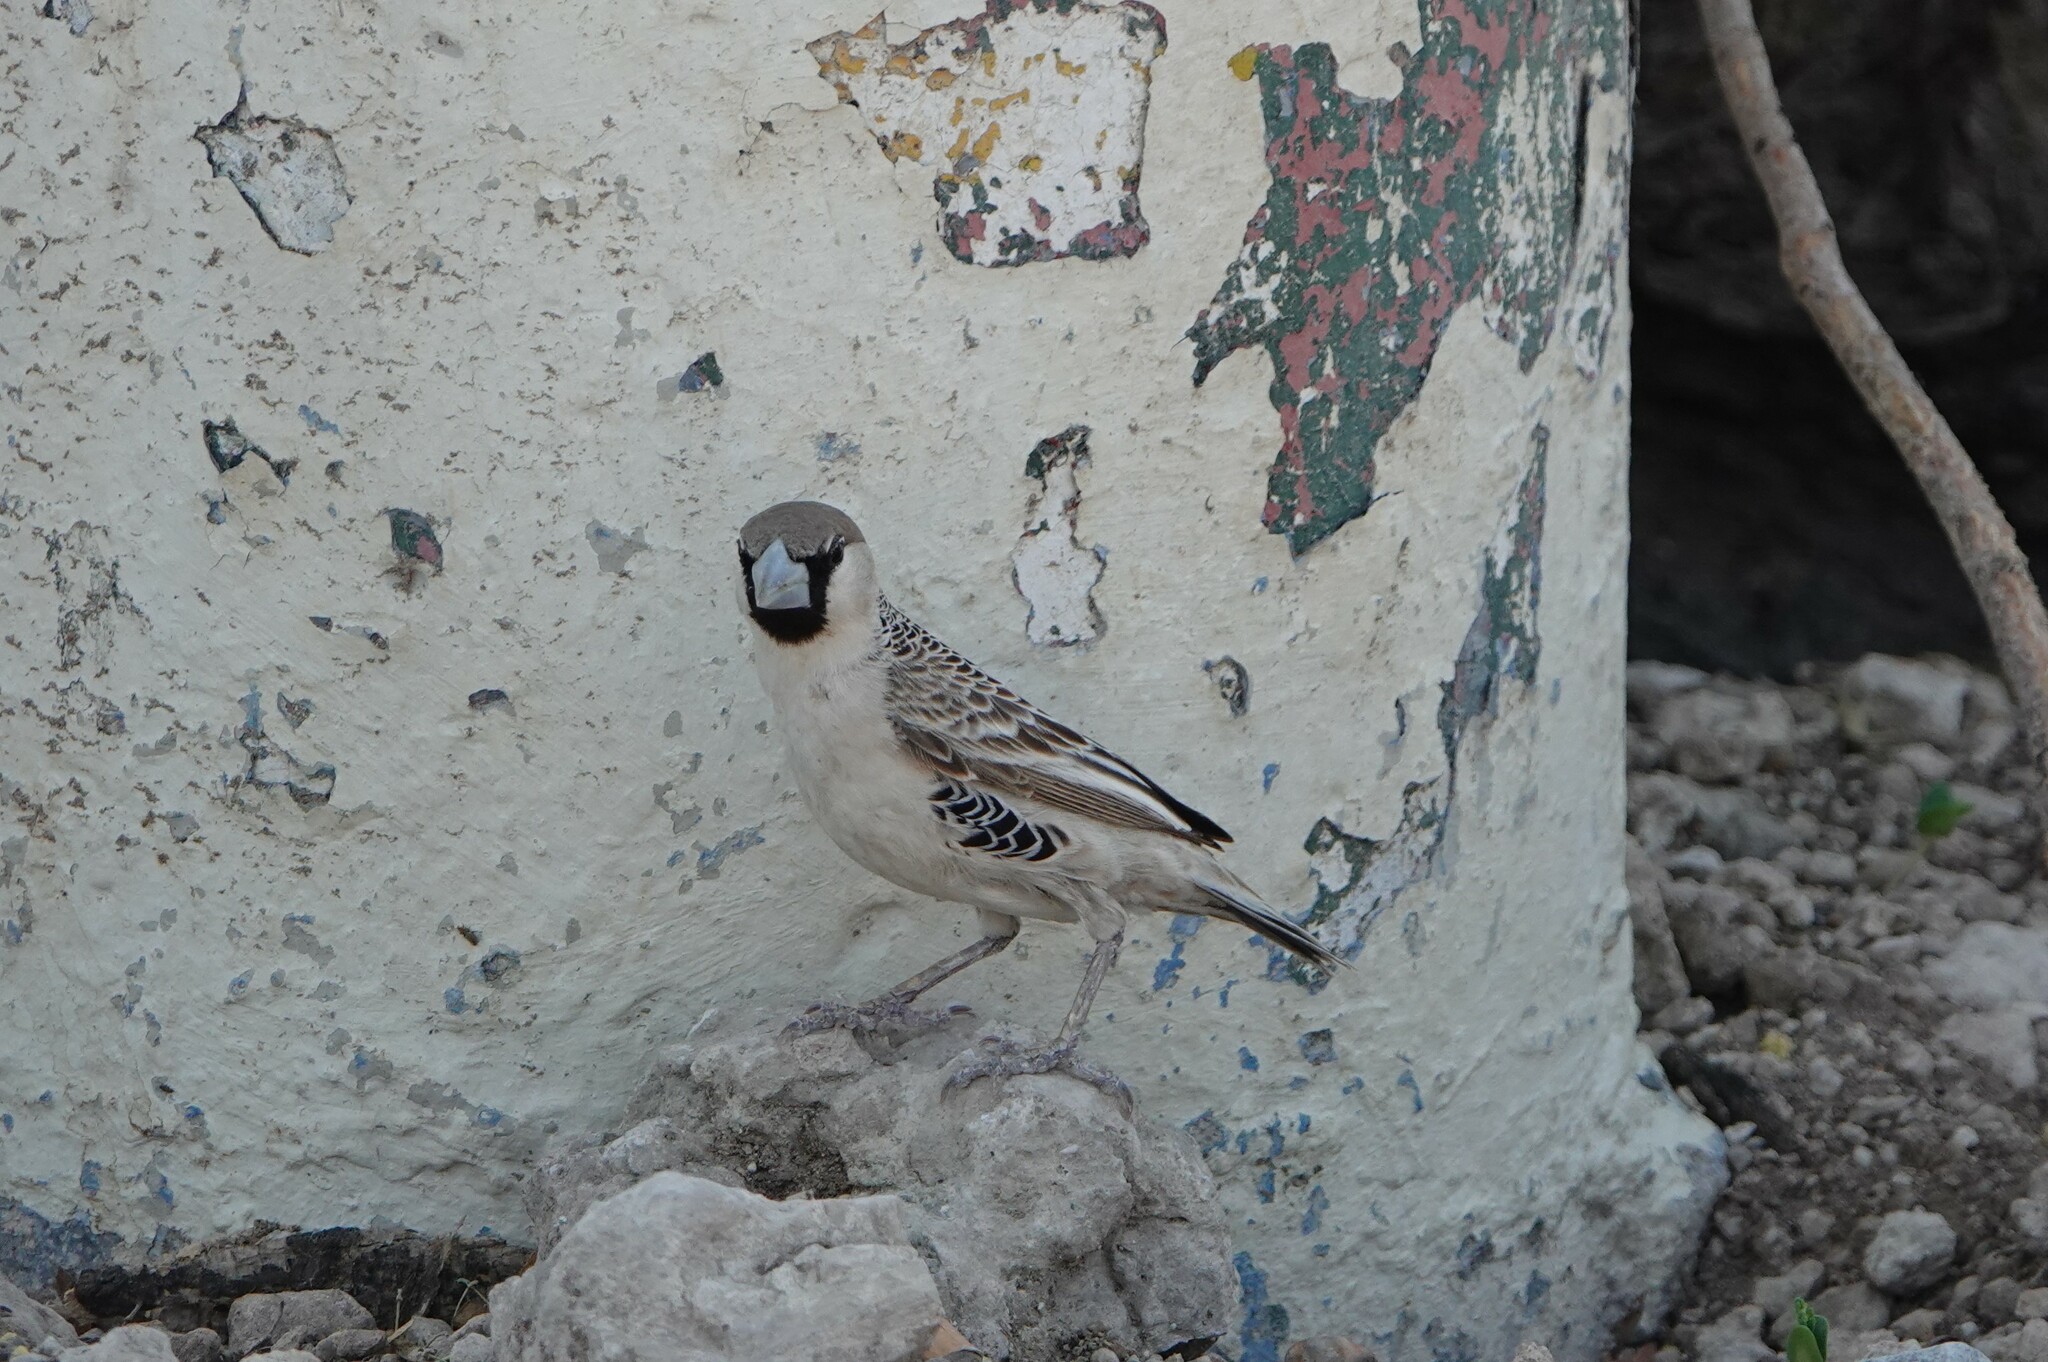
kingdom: Animalia
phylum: Chordata
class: Aves
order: Passeriformes
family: Passeridae
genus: Philetairus
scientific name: Philetairus socius
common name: Sociable weaver
